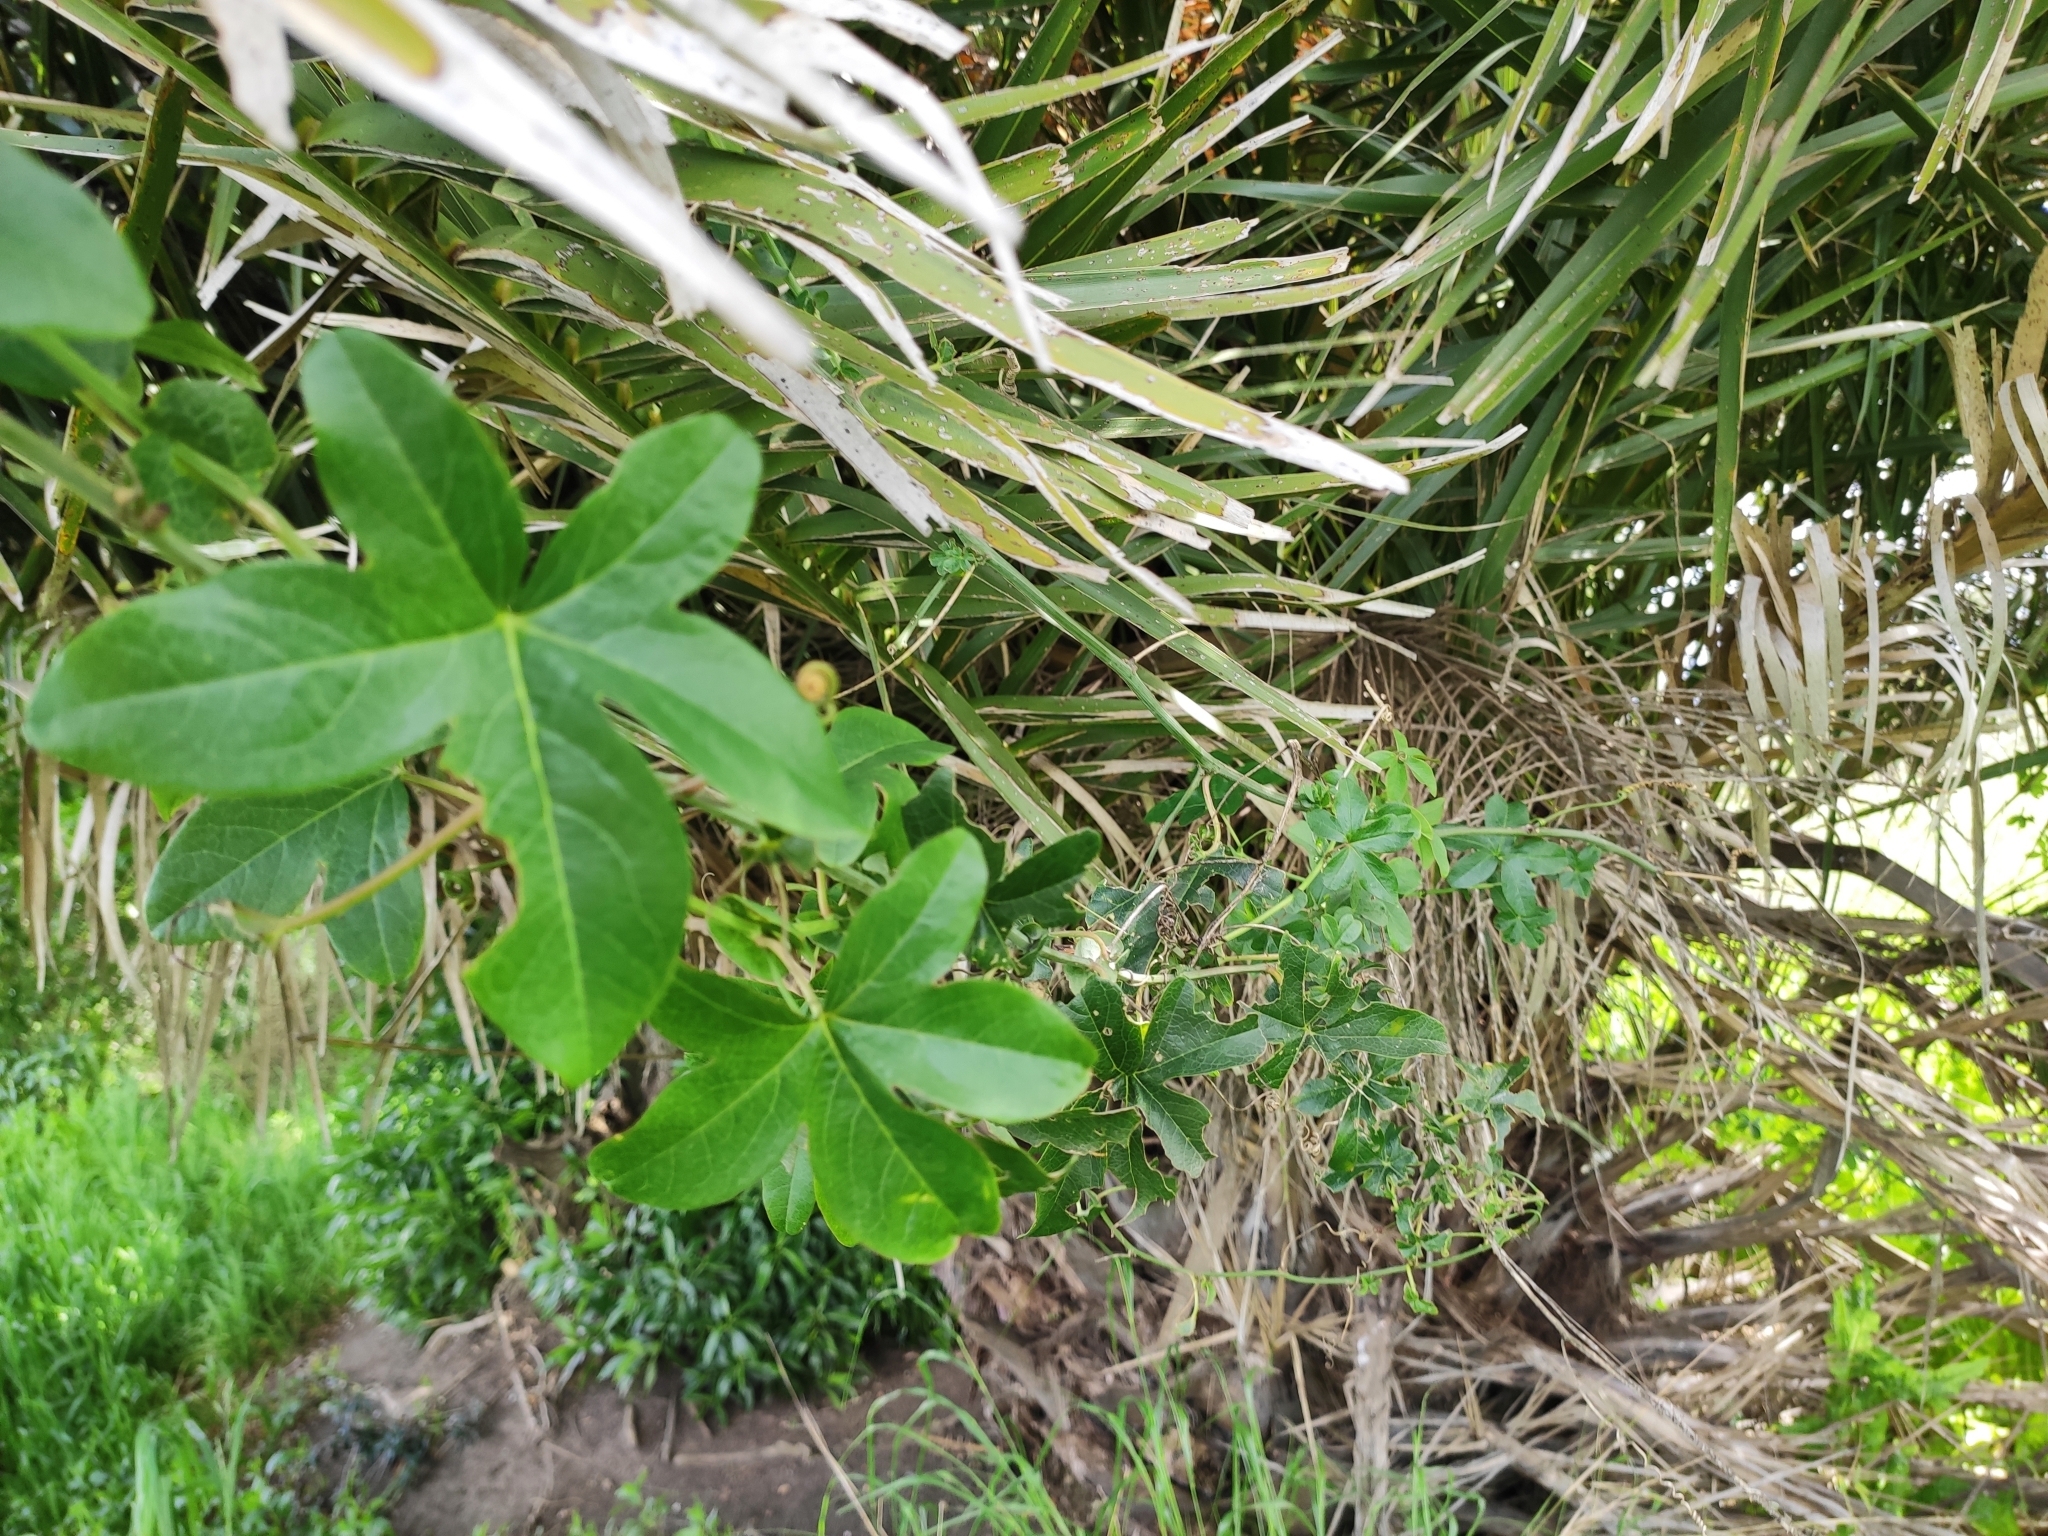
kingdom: Plantae
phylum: Tracheophyta
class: Magnoliopsida
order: Malpighiales
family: Passifloraceae
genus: Passiflora
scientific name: Passiflora caerulea
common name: Blue passionflower
